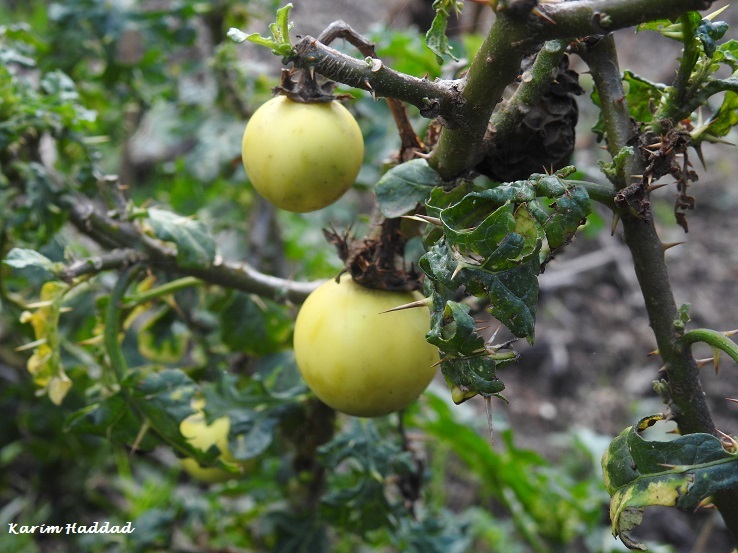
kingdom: Plantae
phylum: Tracheophyta
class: Magnoliopsida
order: Solanales
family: Solanaceae
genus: Solanum
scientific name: Solanum linnaeanum
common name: Nightshade
